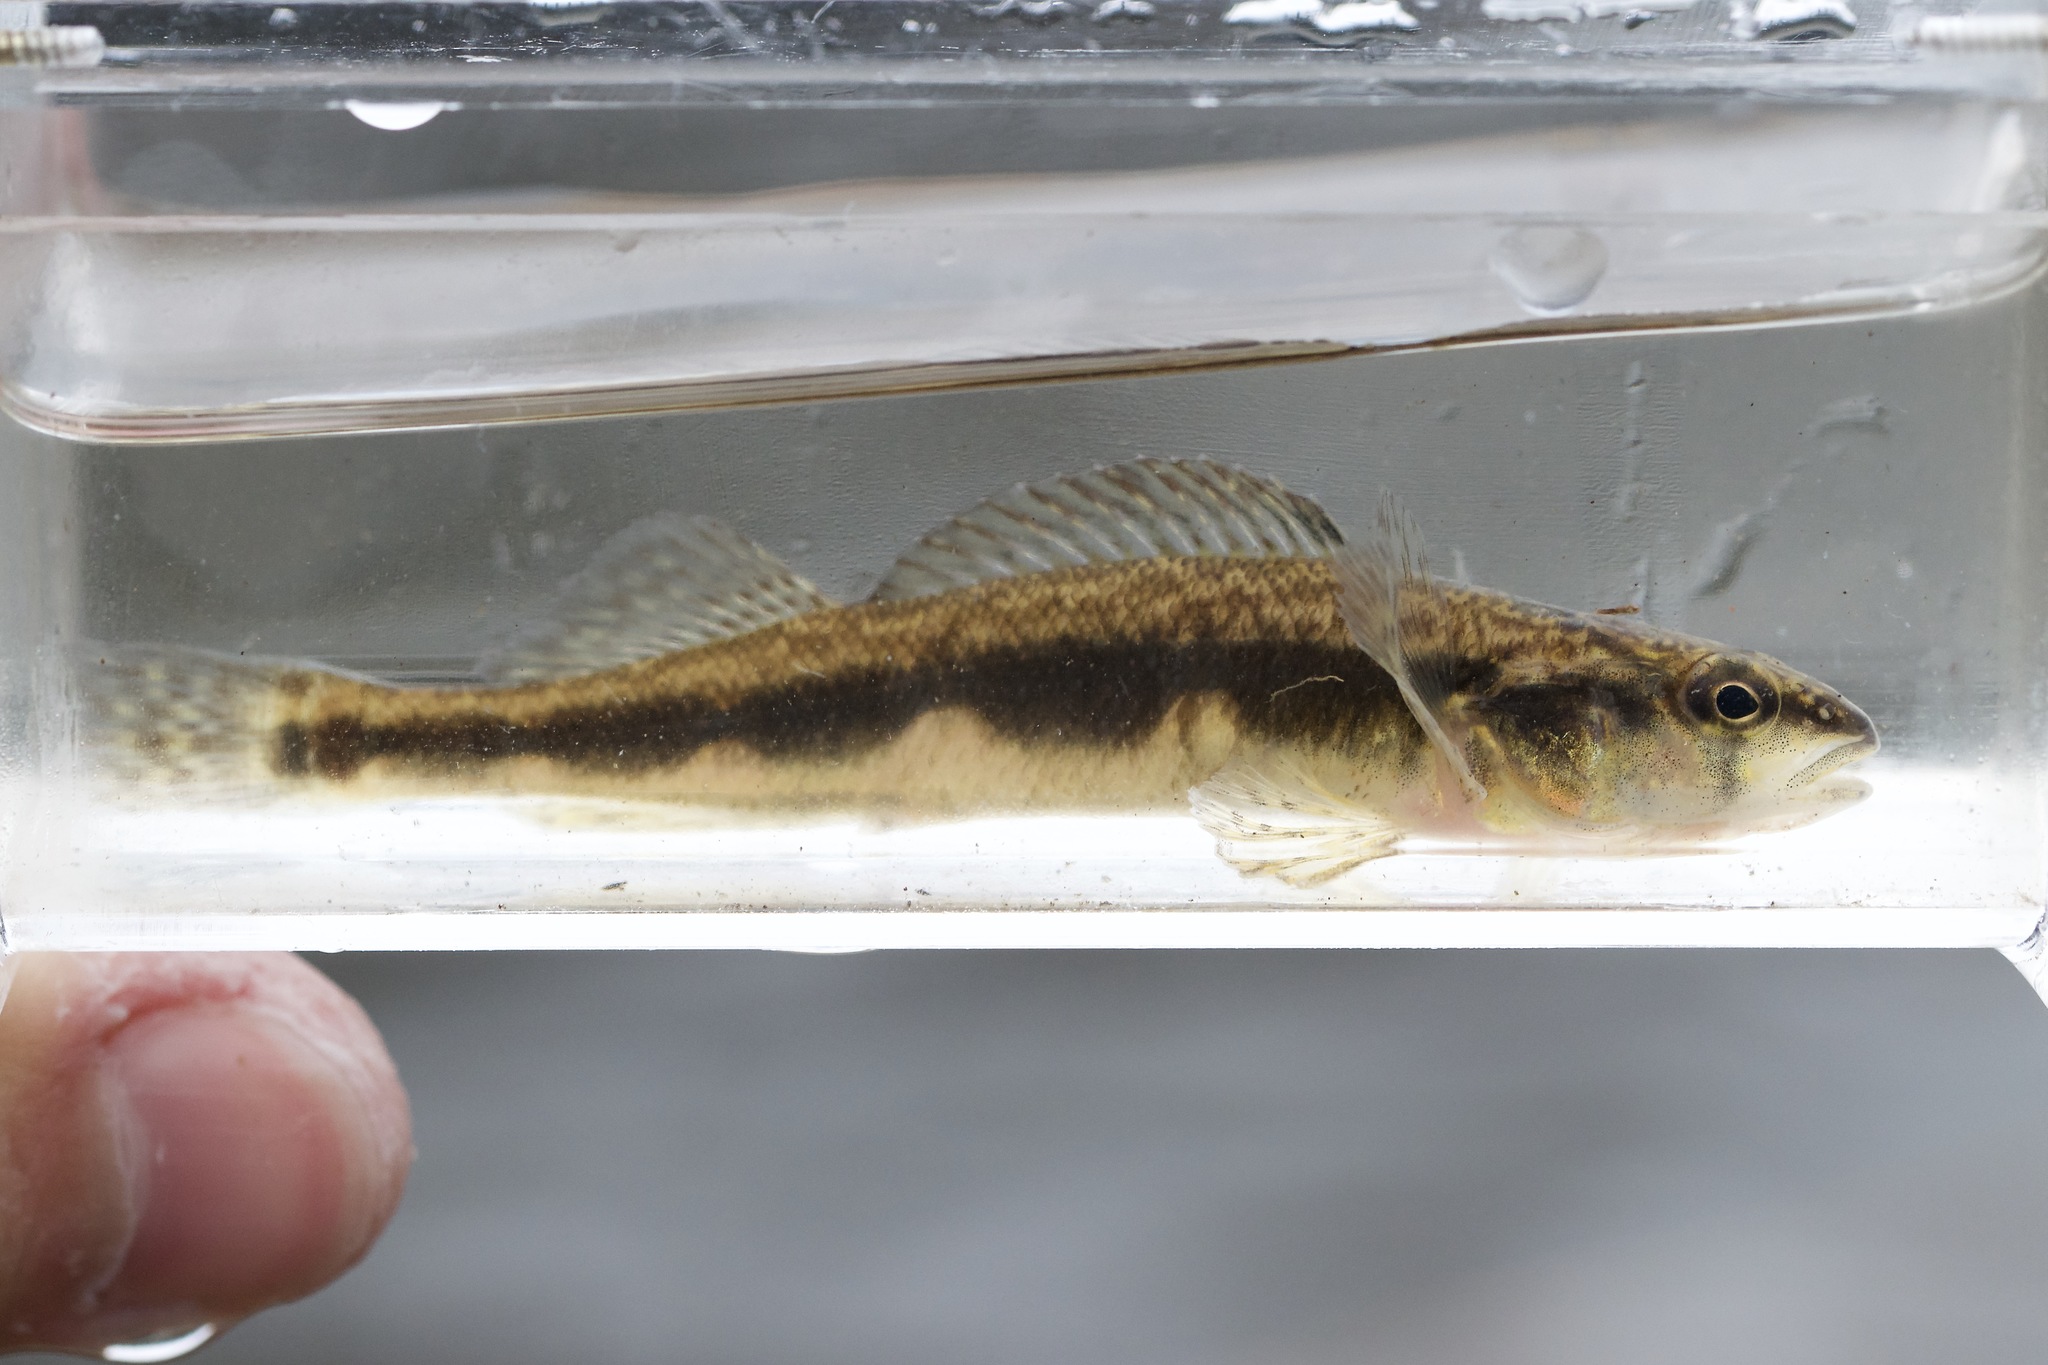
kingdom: Animalia
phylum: Chordata
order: Perciformes
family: Percidae
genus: Percina
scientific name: Percina maculata
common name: Blackside darter
